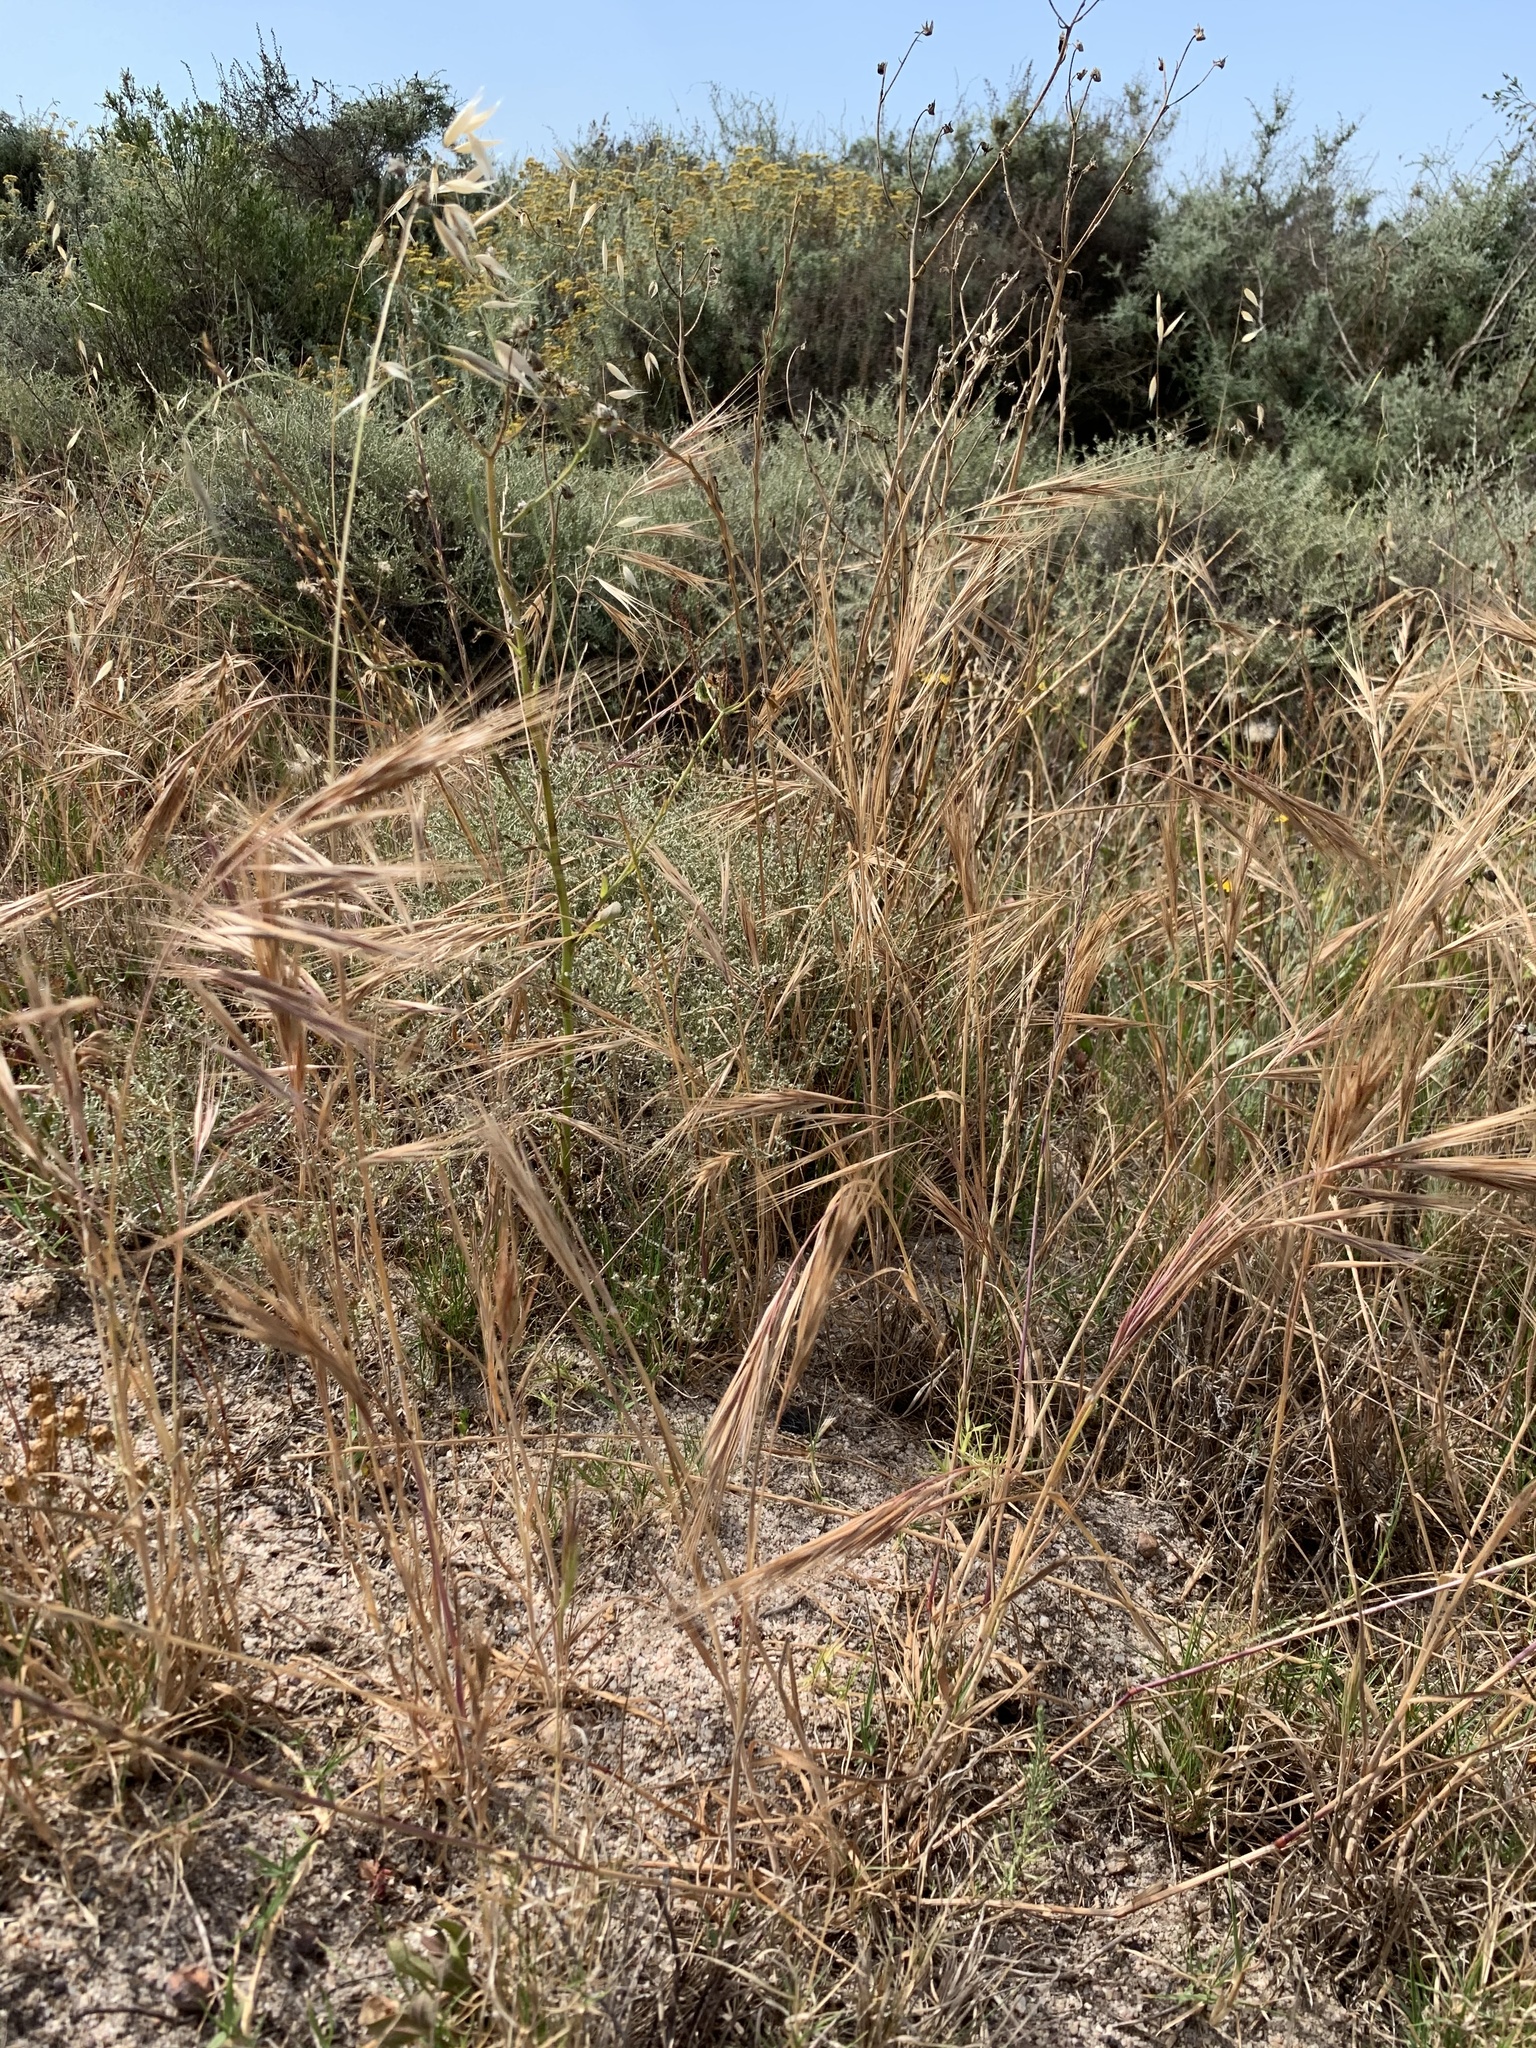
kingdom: Plantae
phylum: Tracheophyta
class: Liliopsida
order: Poales
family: Poaceae
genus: Bromus
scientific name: Bromus diandrus
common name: Ripgut brome
